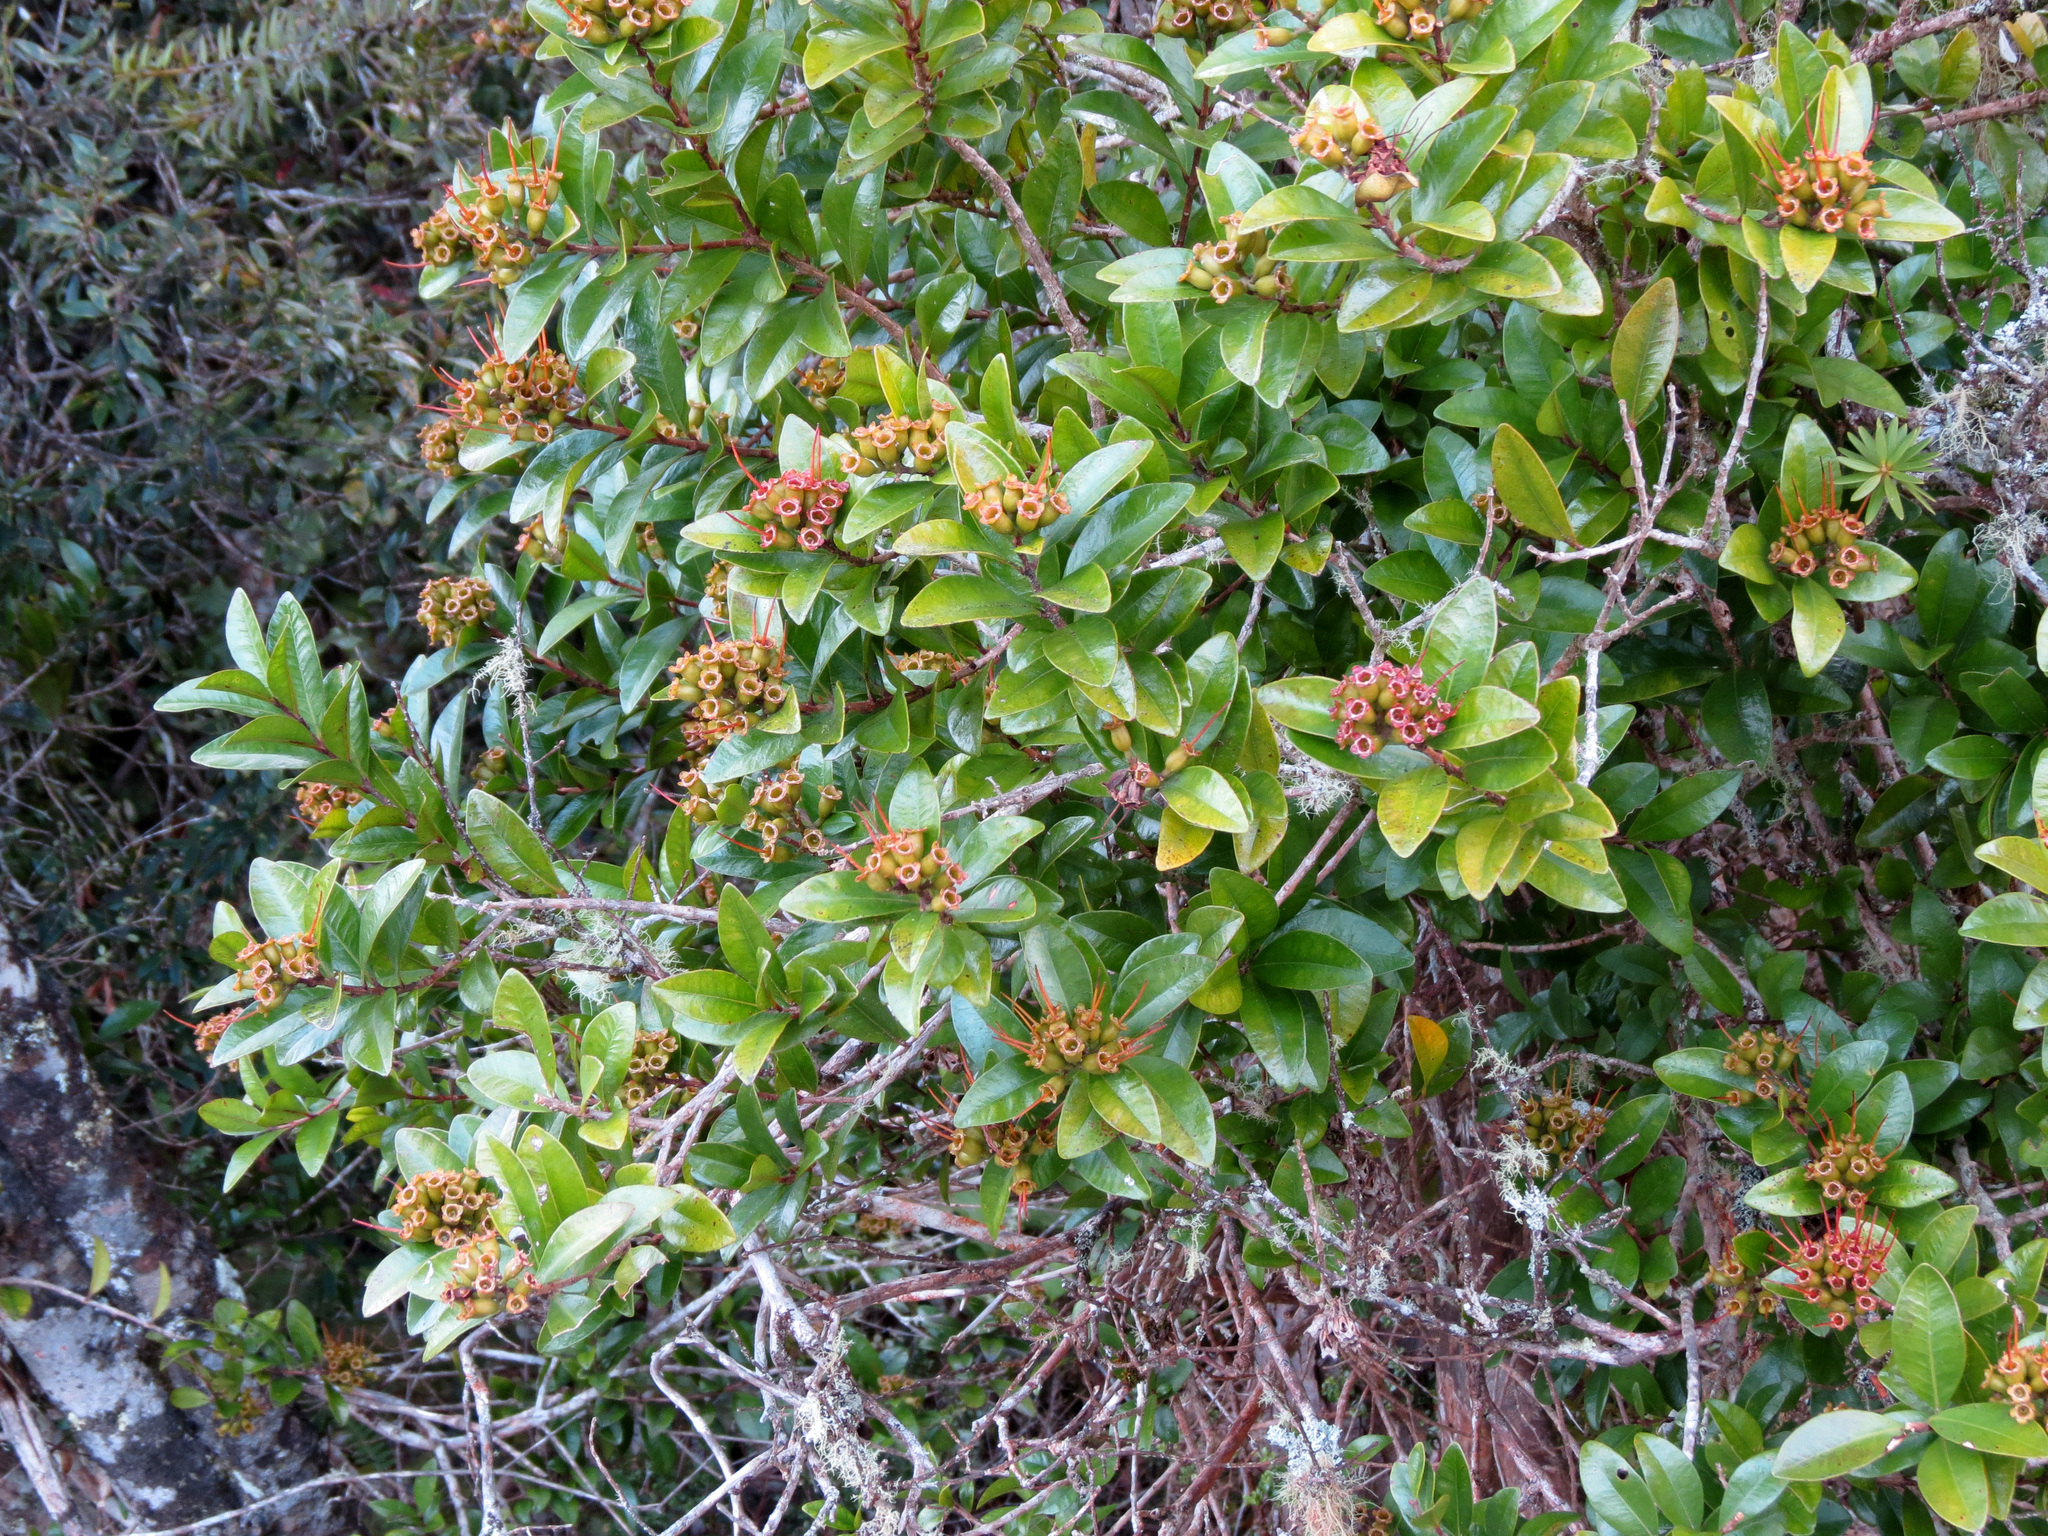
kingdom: Plantae
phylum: Tracheophyta
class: Magnoliopsida
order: Myrtales
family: Myrtaceae
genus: Metrosideros
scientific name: Metrosideros fulgens
